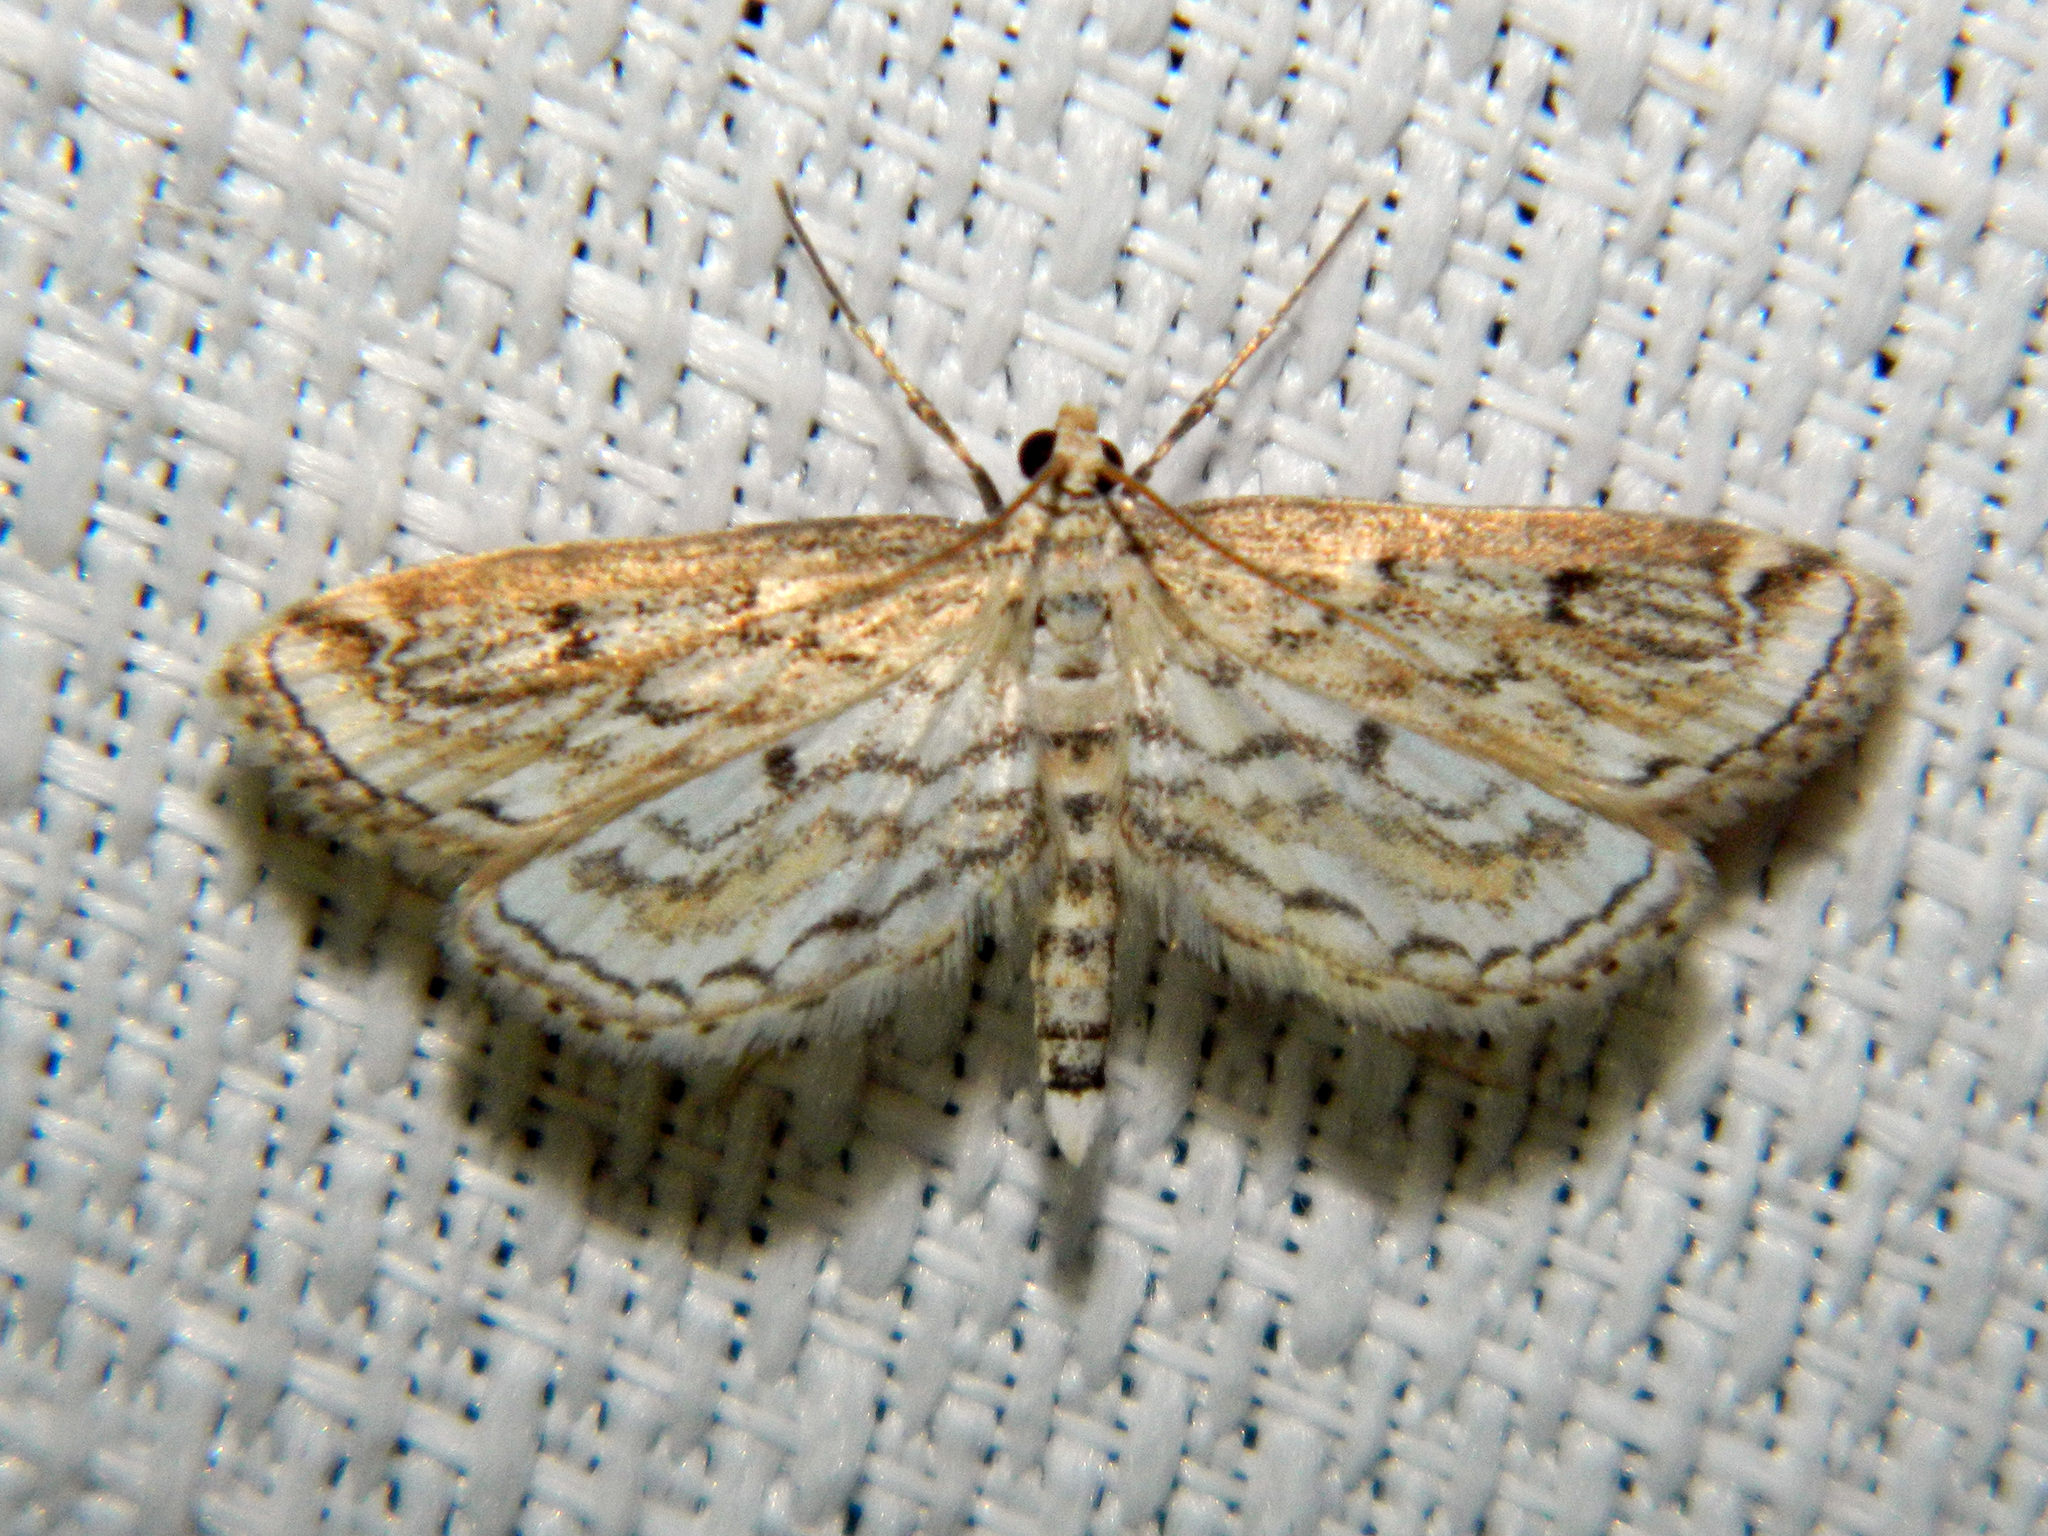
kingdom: Animalia
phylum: Arthropoda
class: Insecta
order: Lepidoptera
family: Crambidae
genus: Parapoynx
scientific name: Parapoynx allionealis
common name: Bladderwort casemaker
